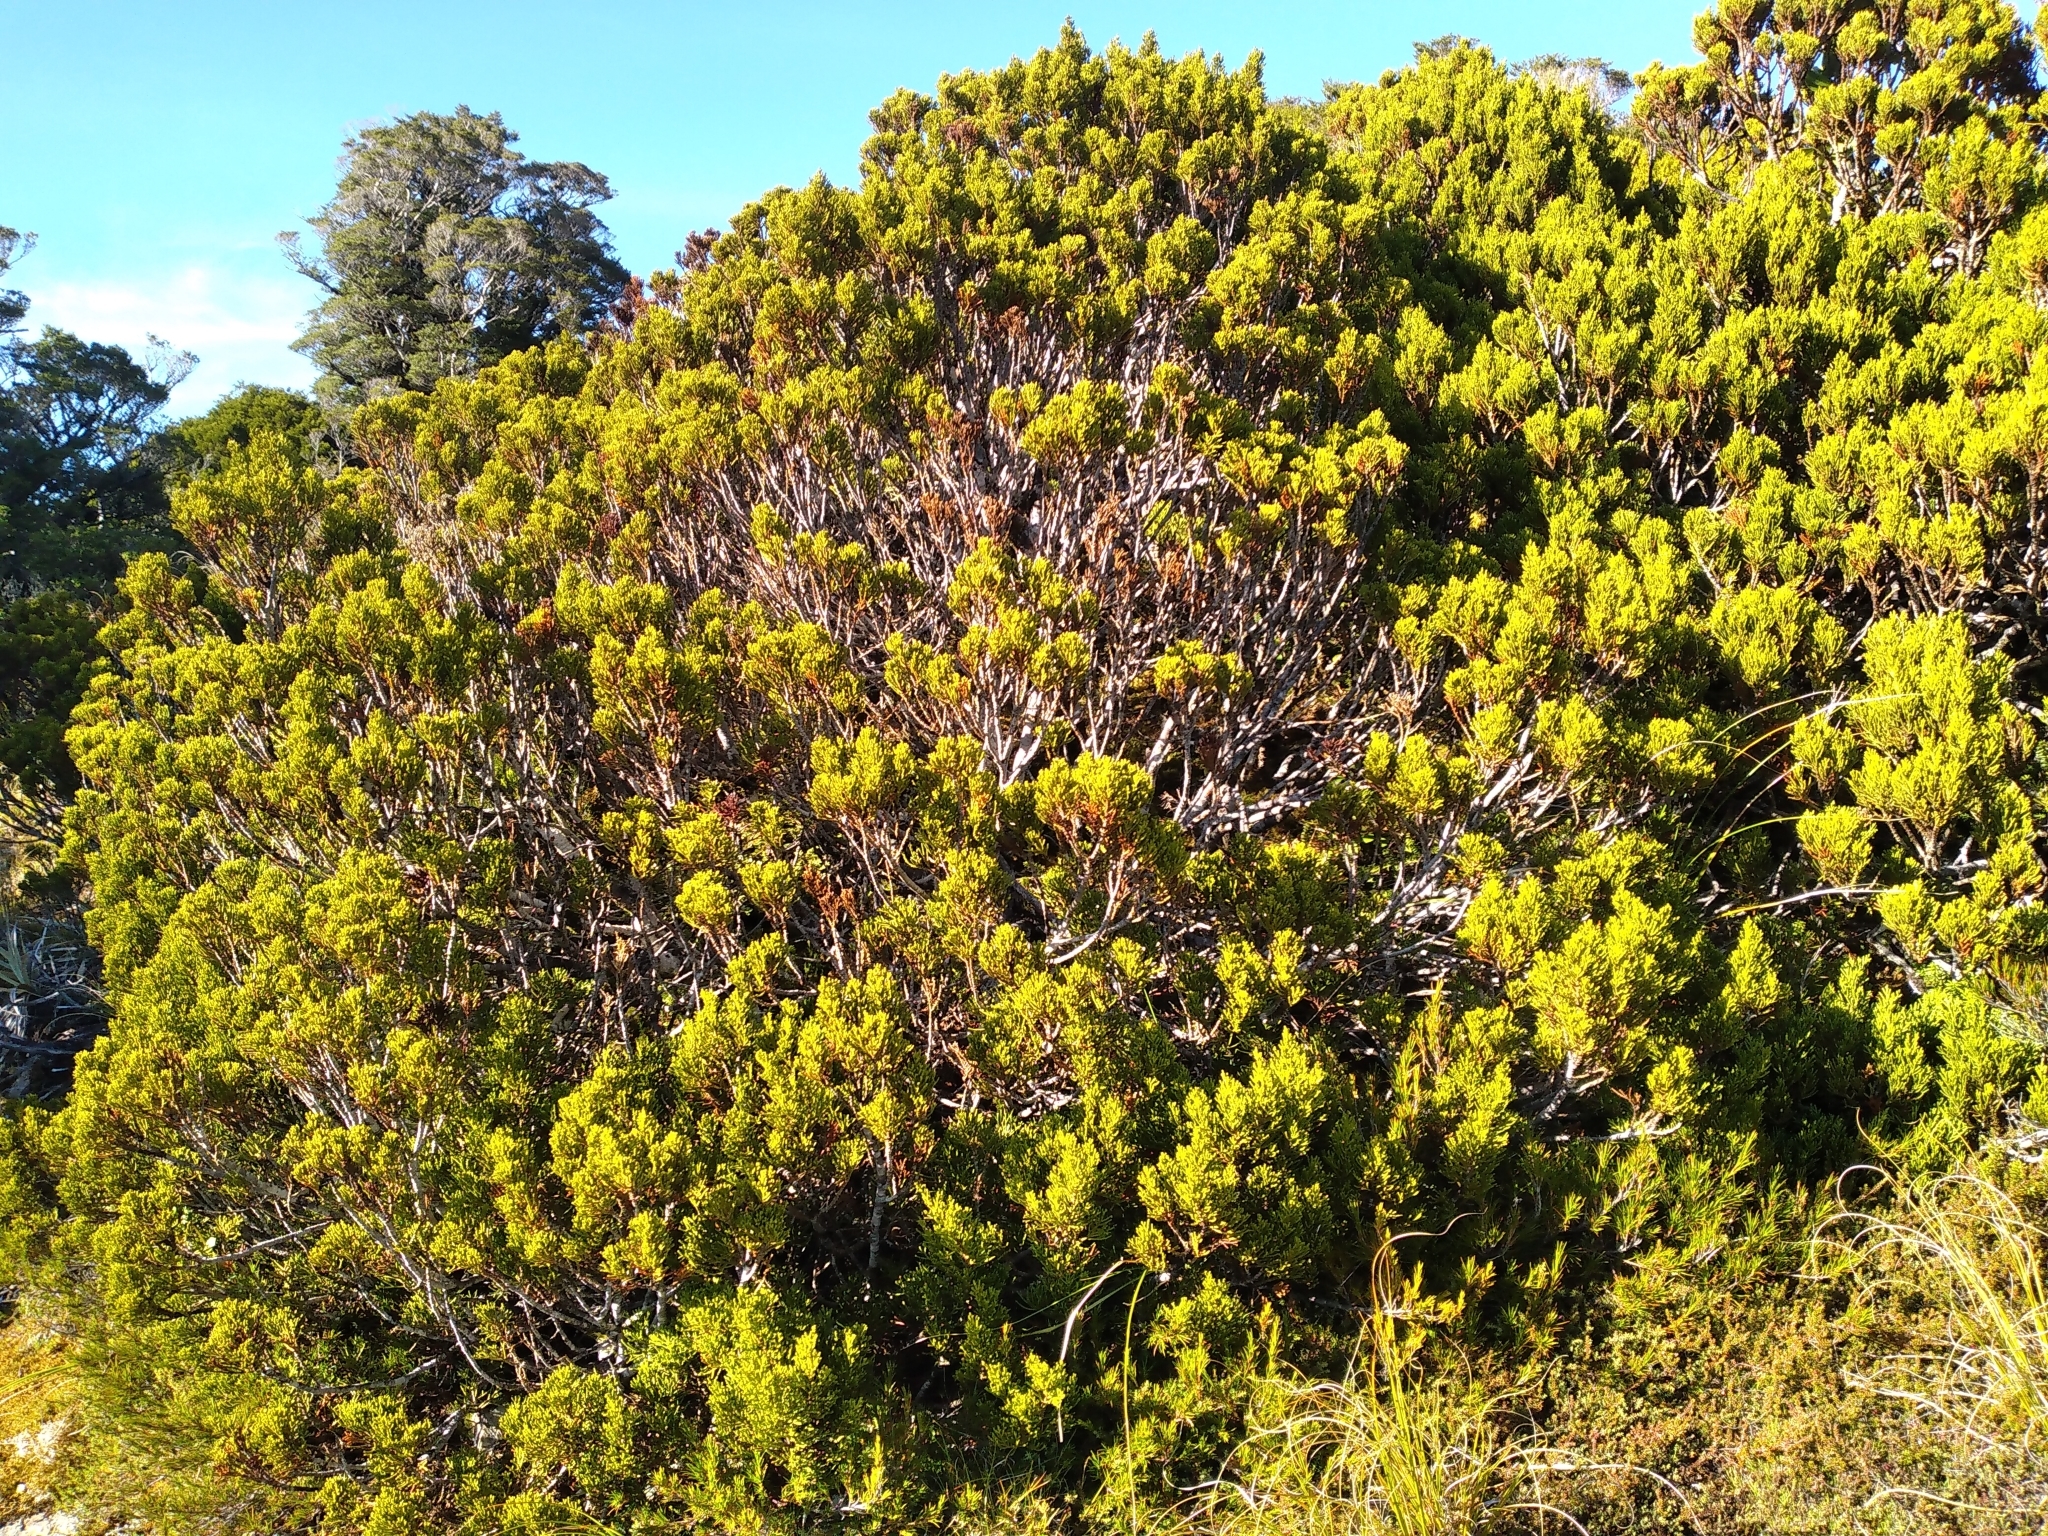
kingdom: Plantae
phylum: Tracheophyta
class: Pinopsida
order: Pinales
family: Podocarpaceae
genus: Halocarpus
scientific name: Halocarpus bidwillii
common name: Bog pine
